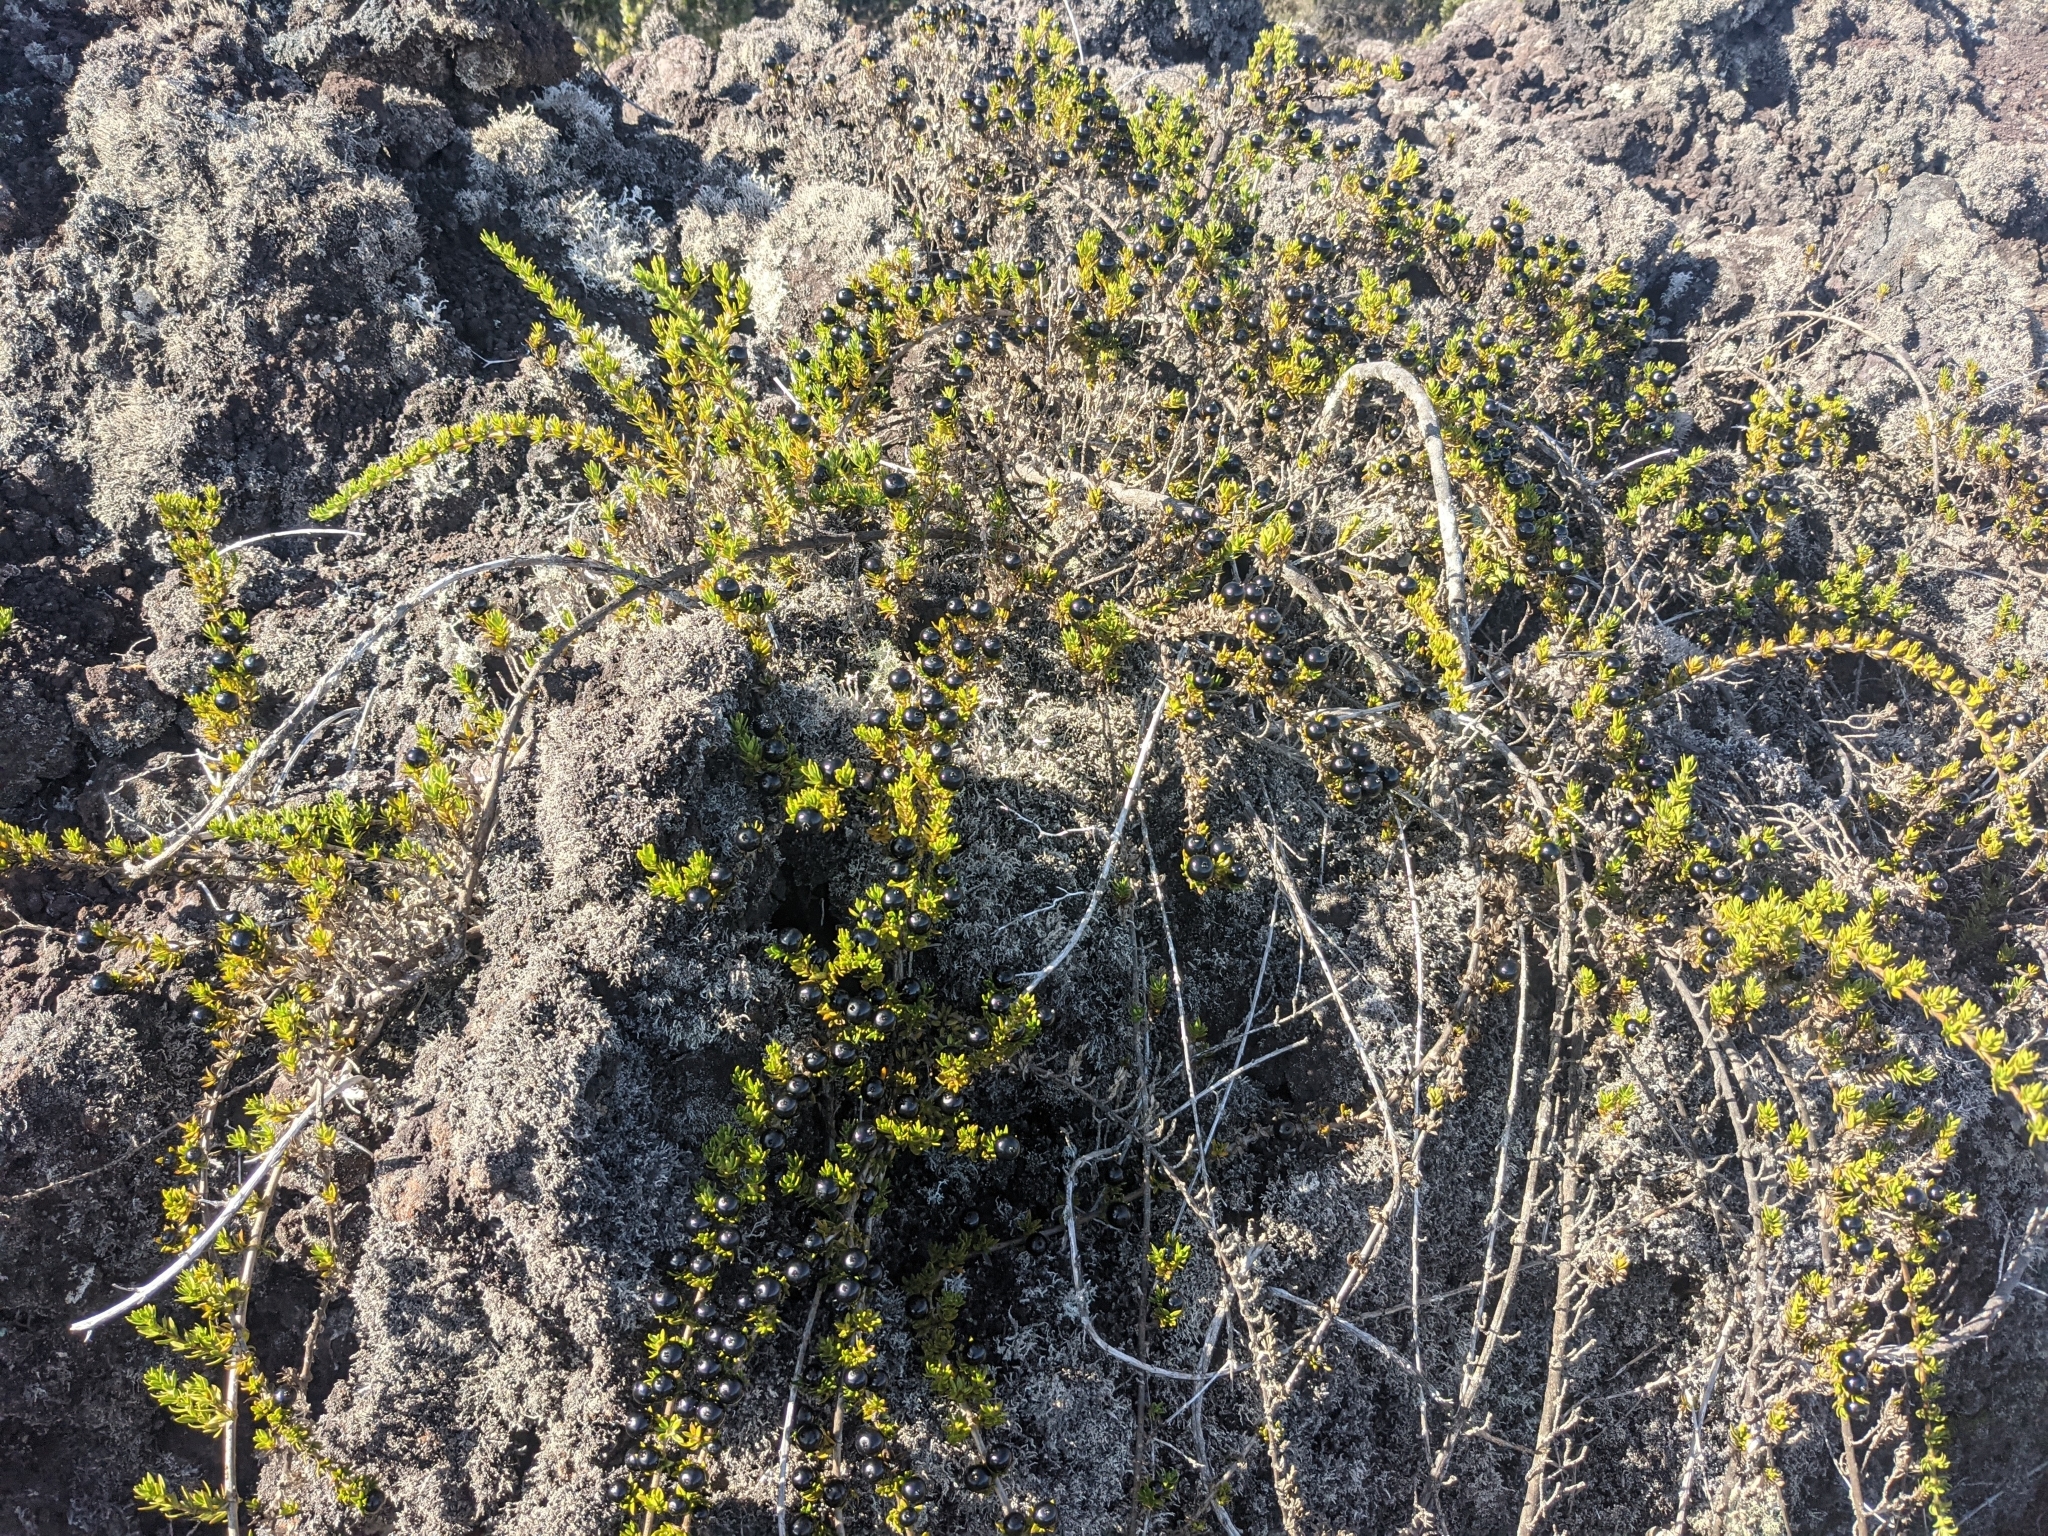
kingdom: Plantae
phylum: Tracheophyta
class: Magnoliopsida
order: Gentianales
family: Rubiaceae
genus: Coprosma
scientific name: Coprosma ernodeoides
